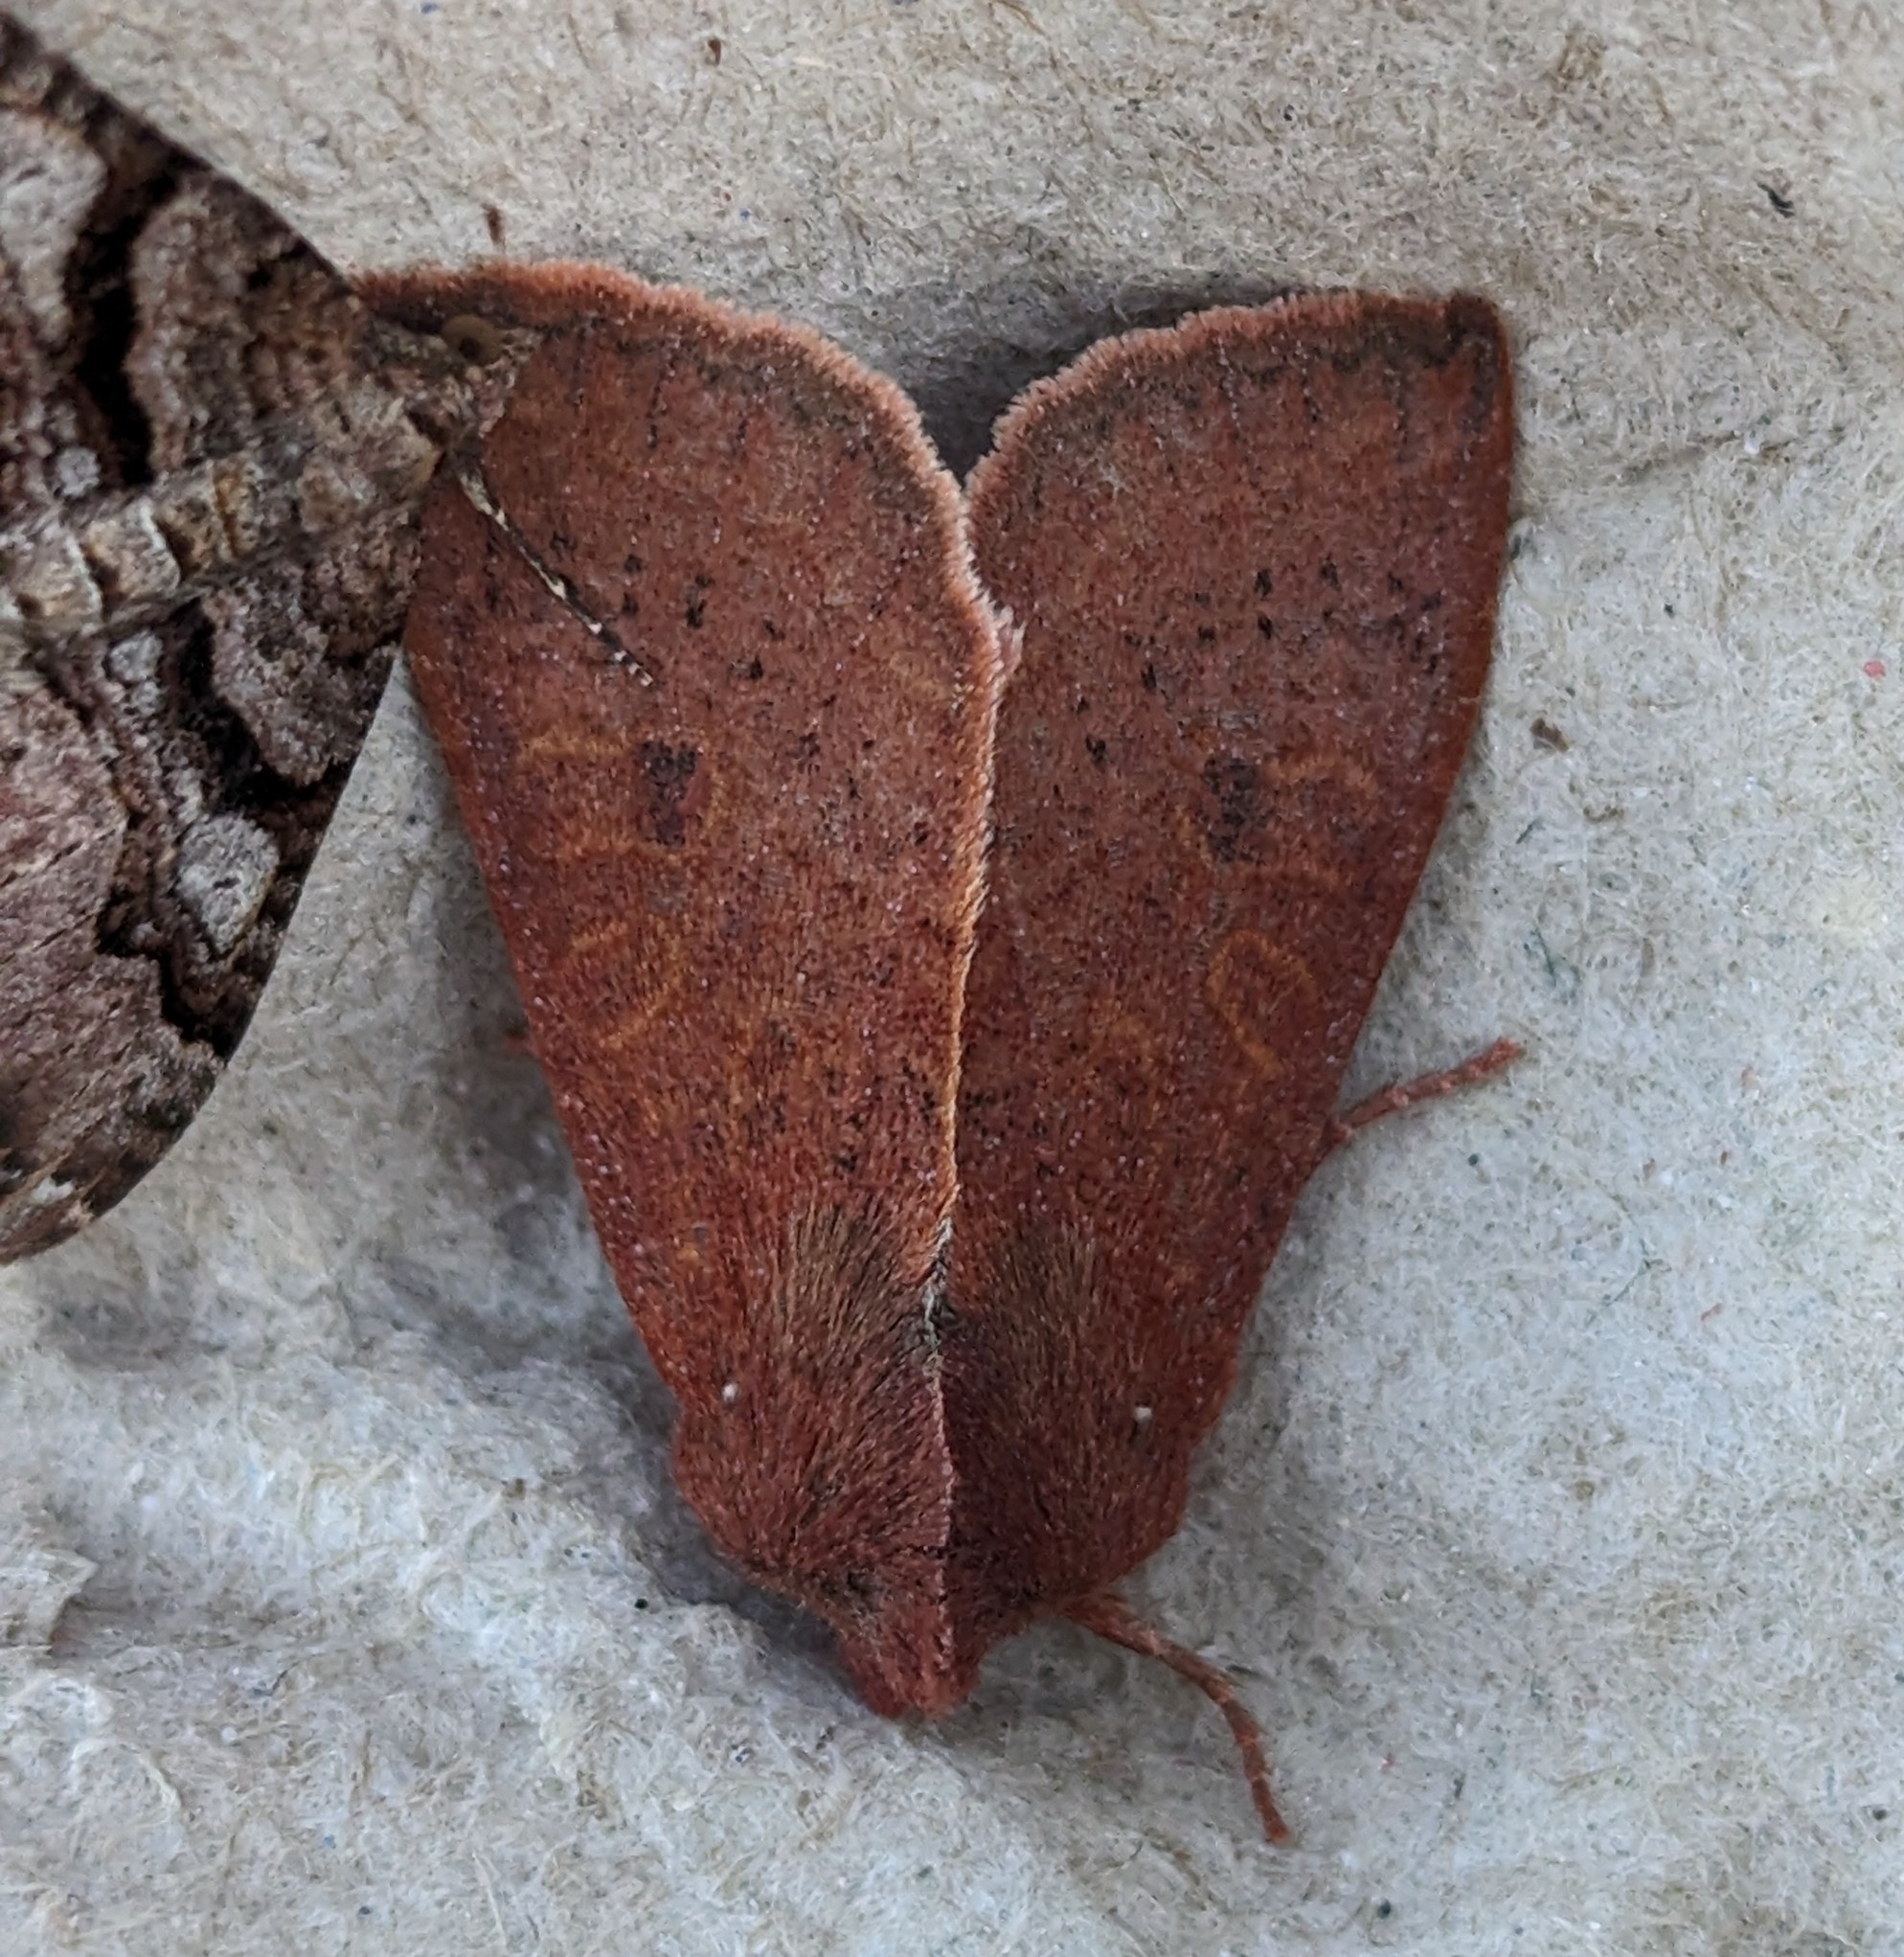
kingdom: Animalia
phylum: Arthropoda
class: Insecta
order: Lepidoptera
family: Noctuidae
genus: Orthosia
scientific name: Orthosia transparens
